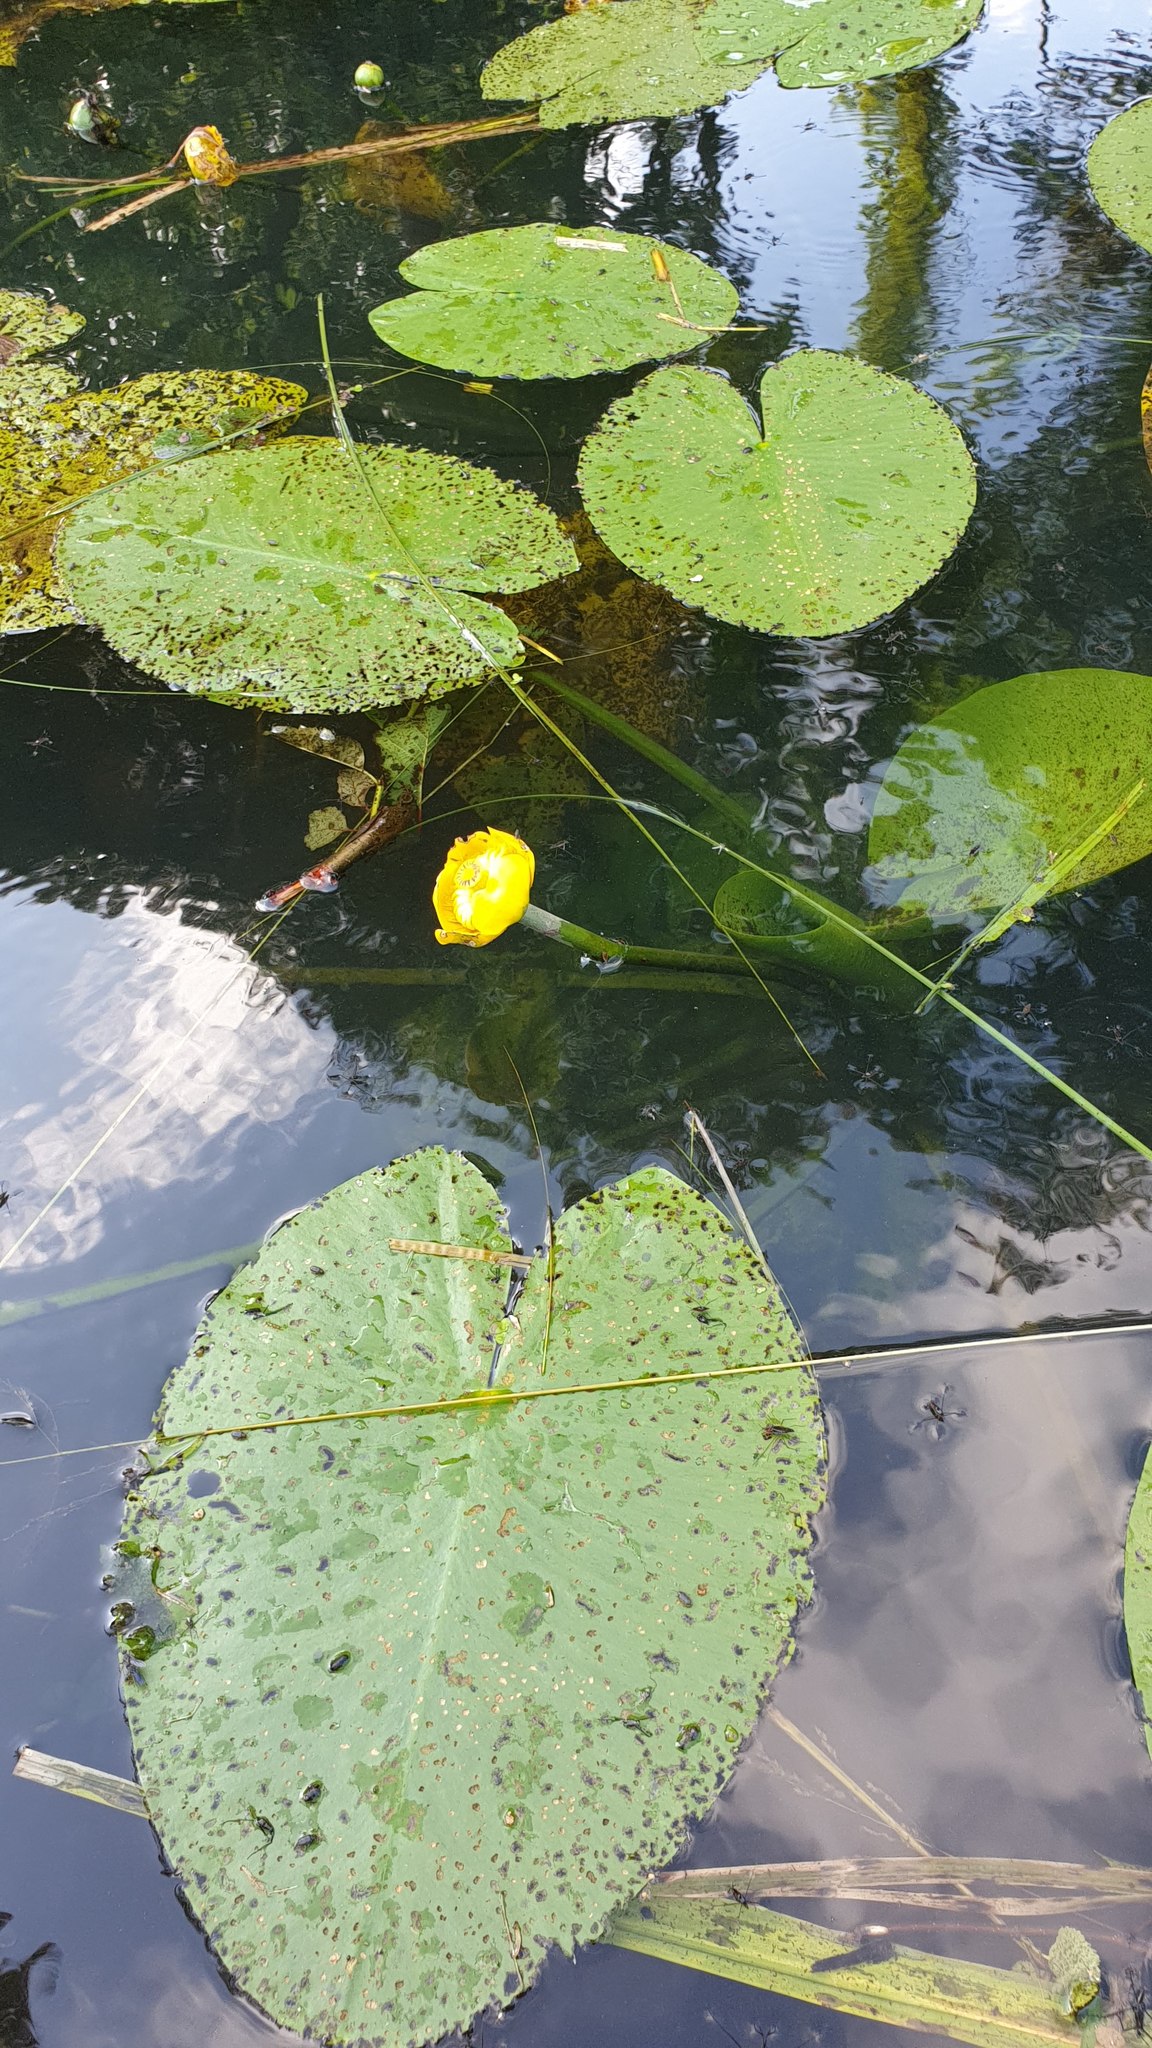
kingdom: Plantae
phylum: Tracheophyta
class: Magnoliopsida
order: Nymphaeales
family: Nymphaeaceae
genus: Nuphar
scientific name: Nuphar lutea
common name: Yellow water-lily
